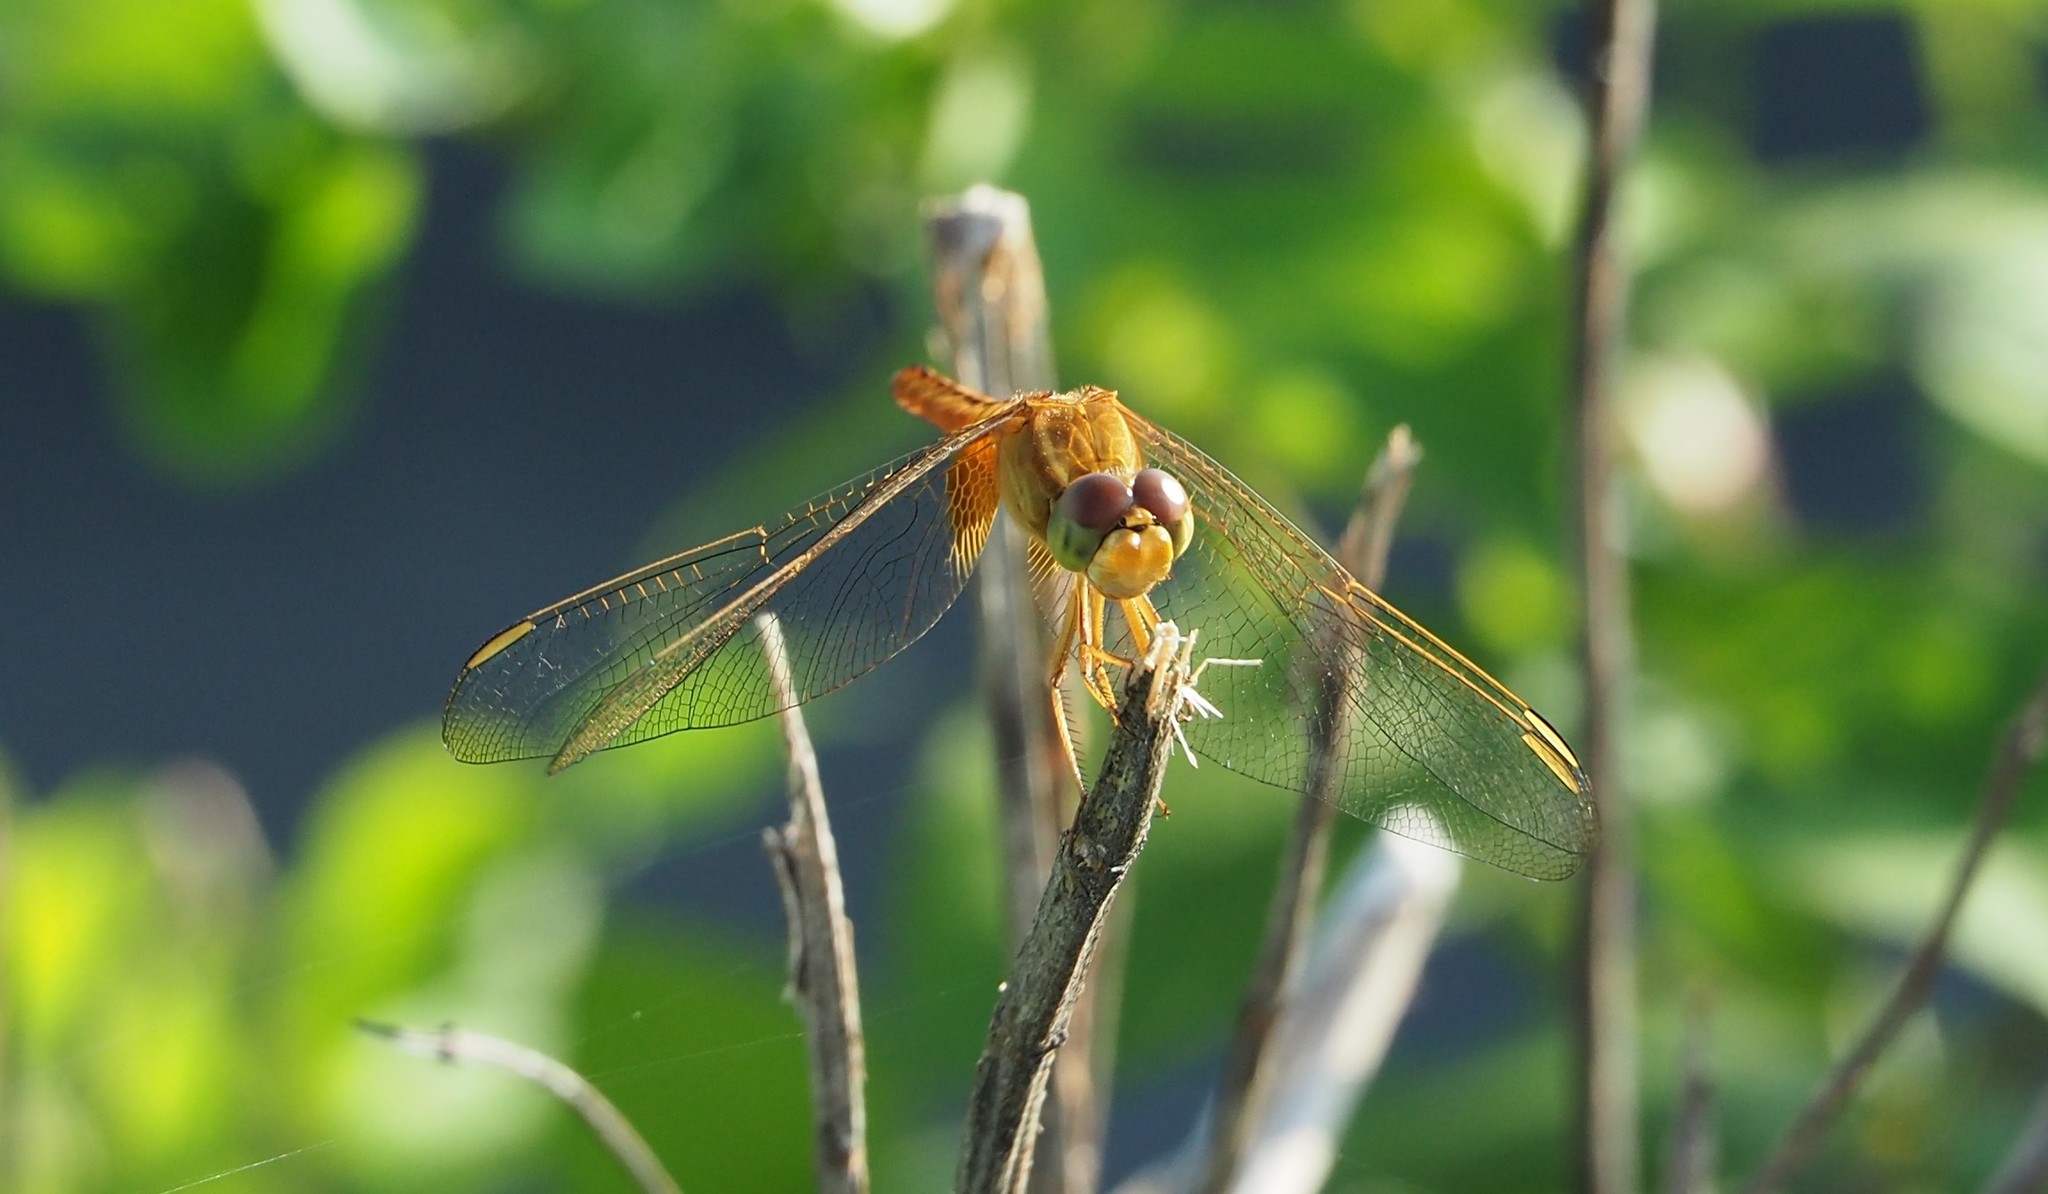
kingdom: Animalia
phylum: Arthropoda
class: Insecta
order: Odonata
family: Libellulidae
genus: Crocothemis
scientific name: Crocothemis servilia
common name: Scarlet skimmer
